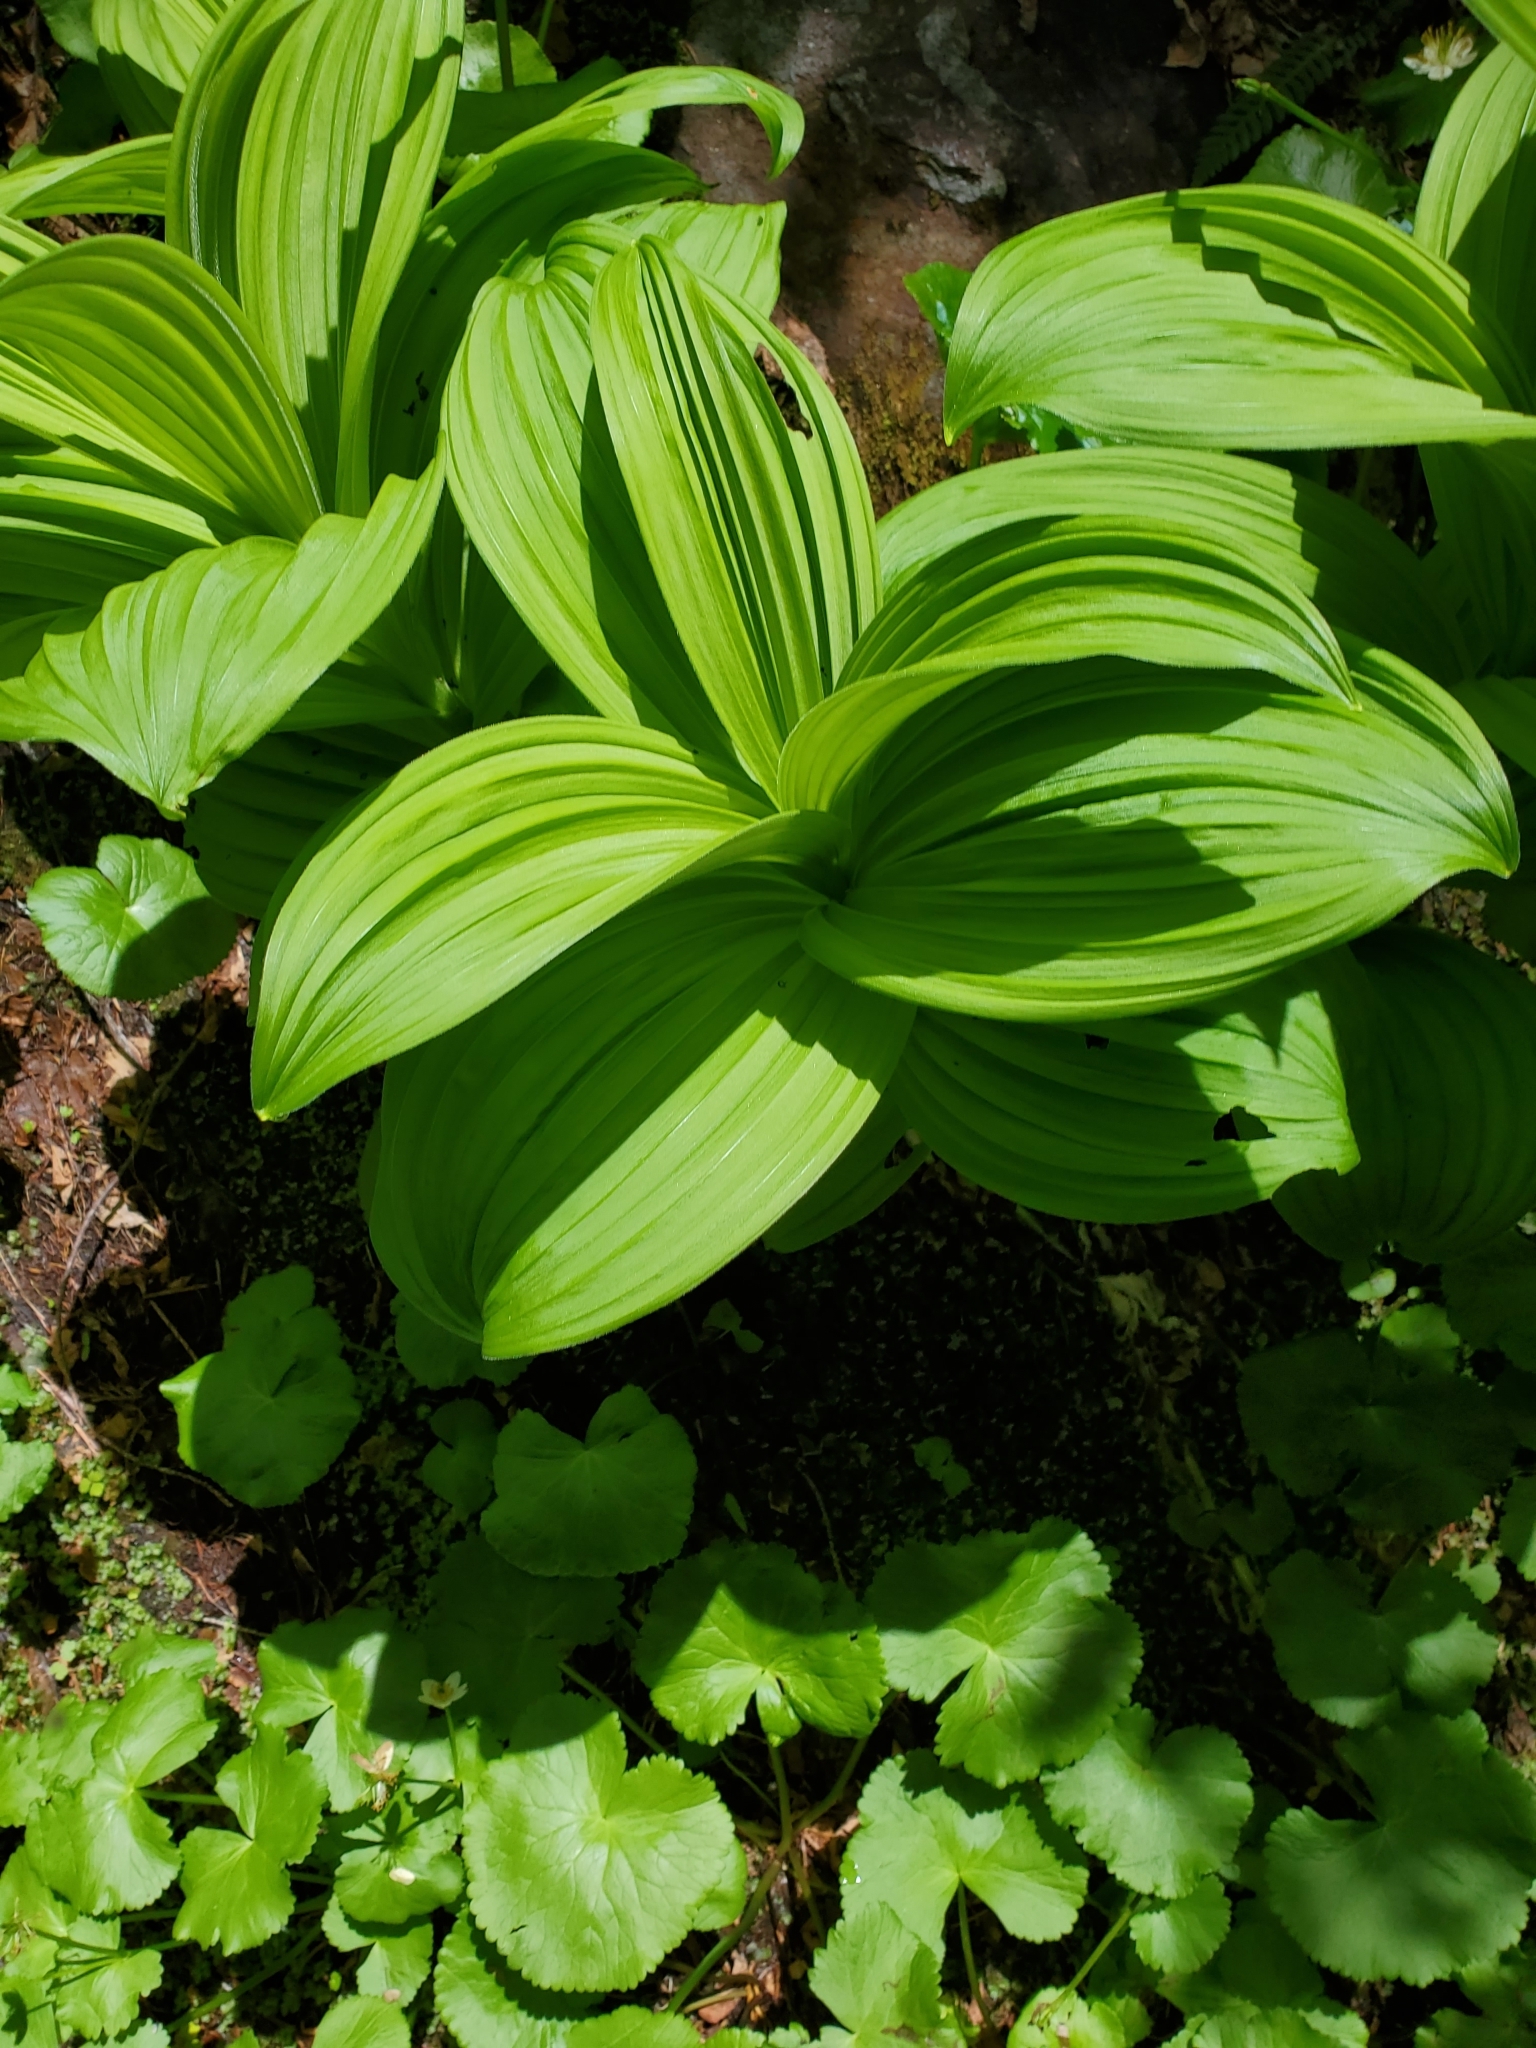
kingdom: Plantae
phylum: Tracheophyta
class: Liliopsida
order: Liliales
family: Melanthiaceae
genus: Veratrum
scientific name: Veratrum viride
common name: American false hellebore
